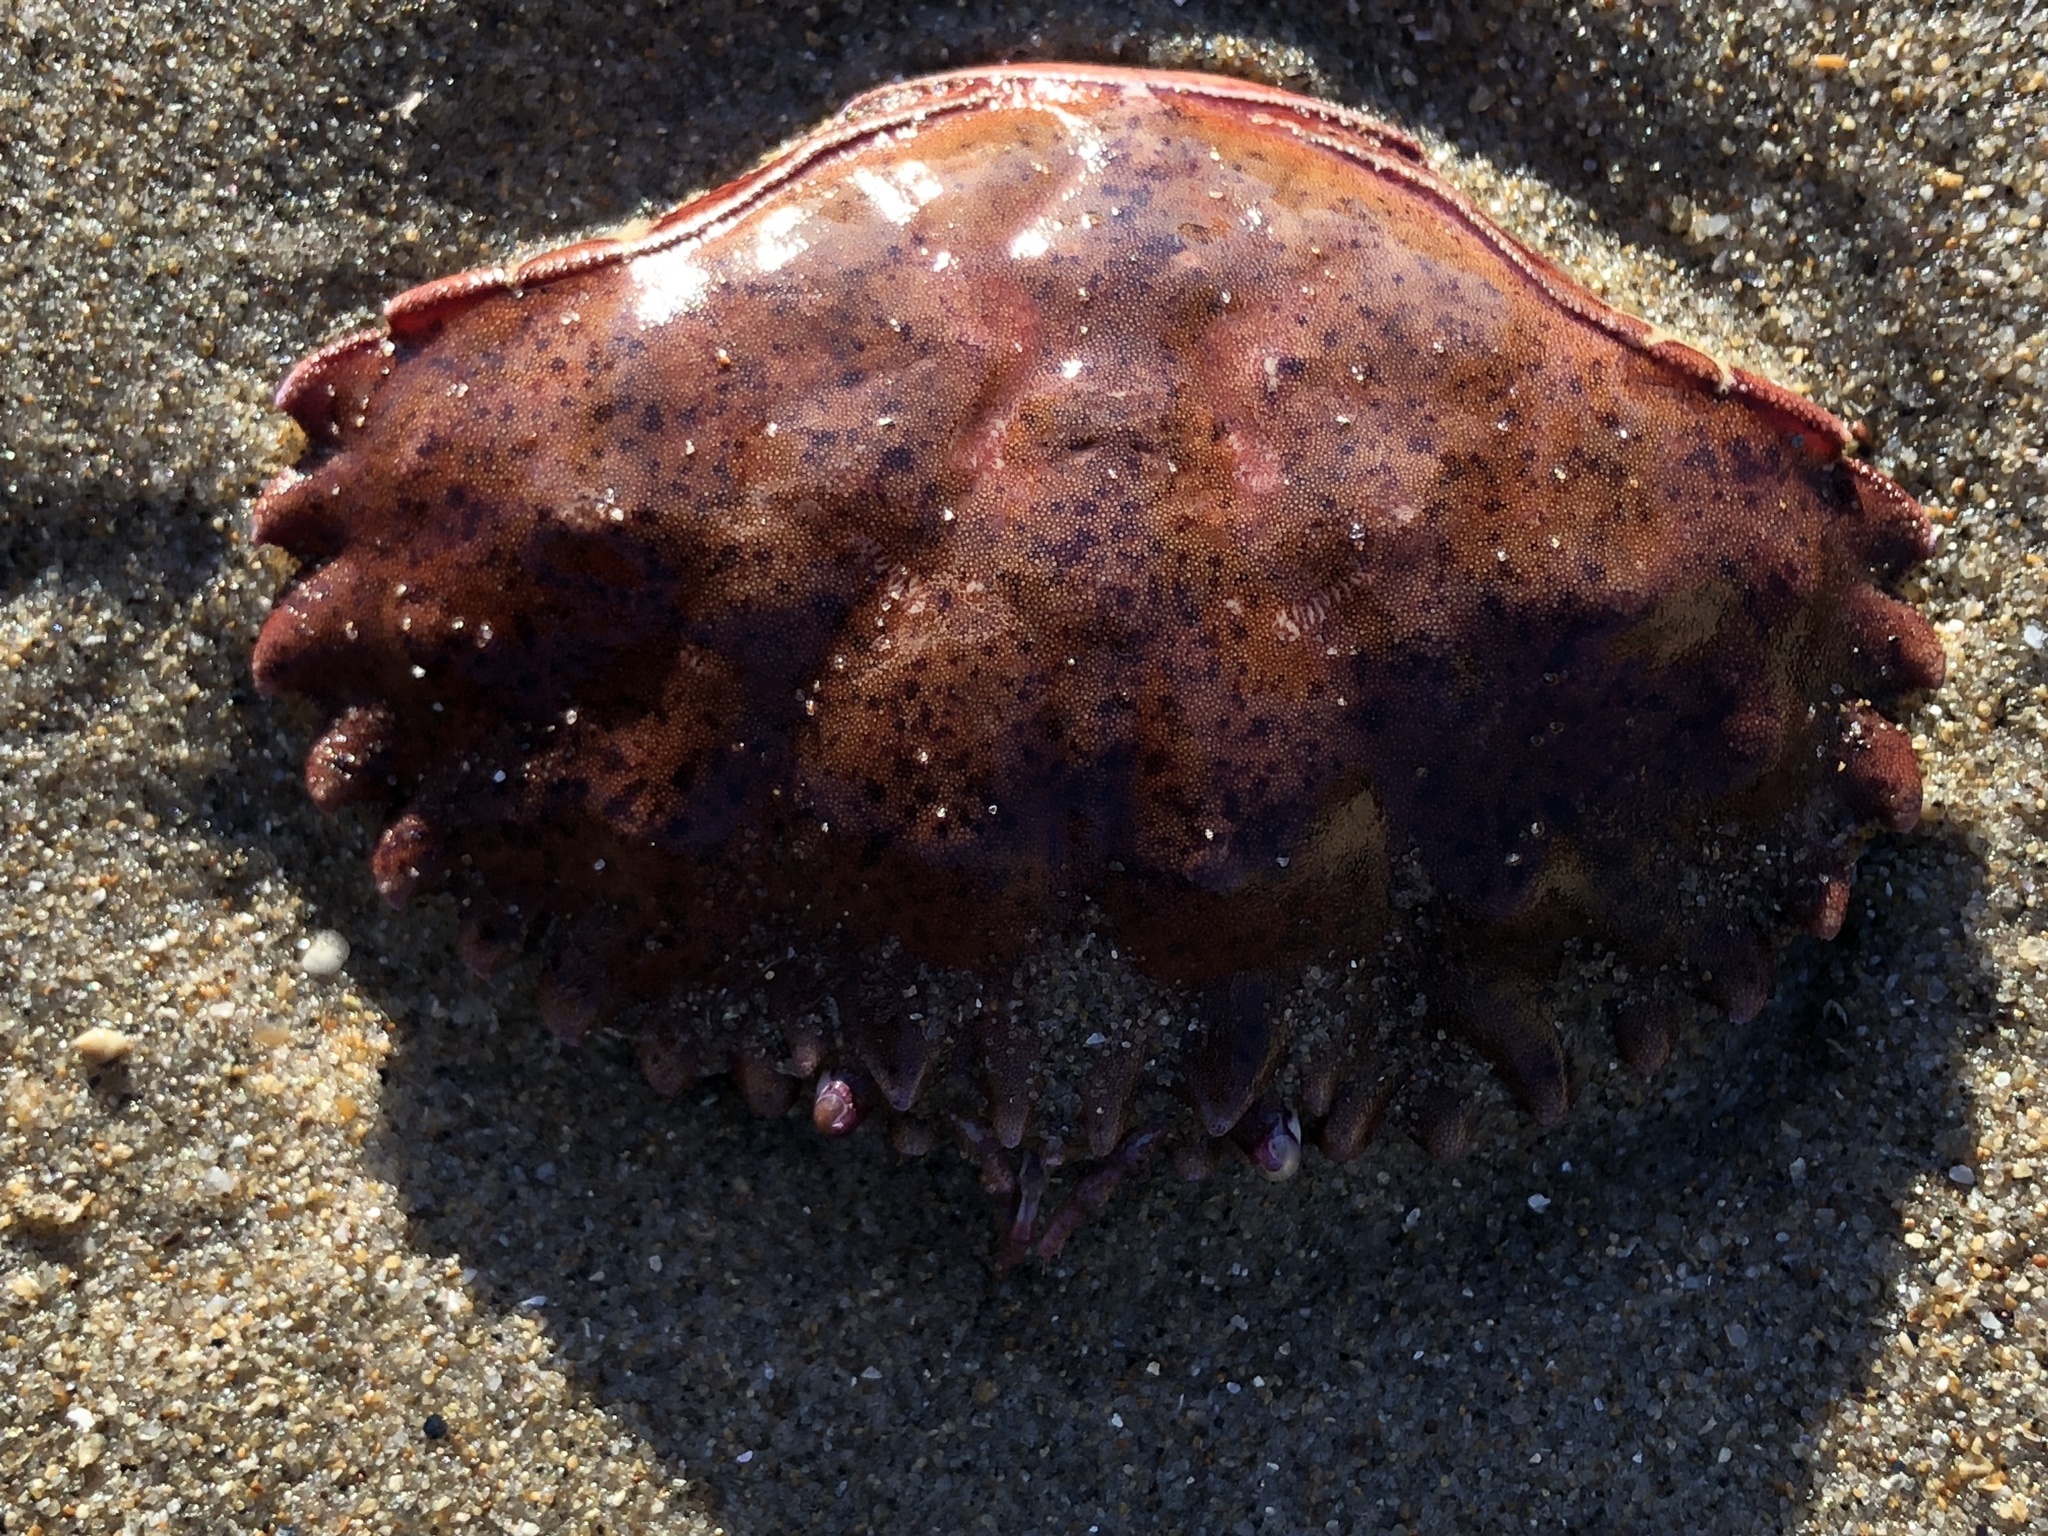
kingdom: Animalia
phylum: Arthropoda
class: Malacostraca
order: Decapoda
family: Cancridae
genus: Romaleon
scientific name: Romaleon antennarium
